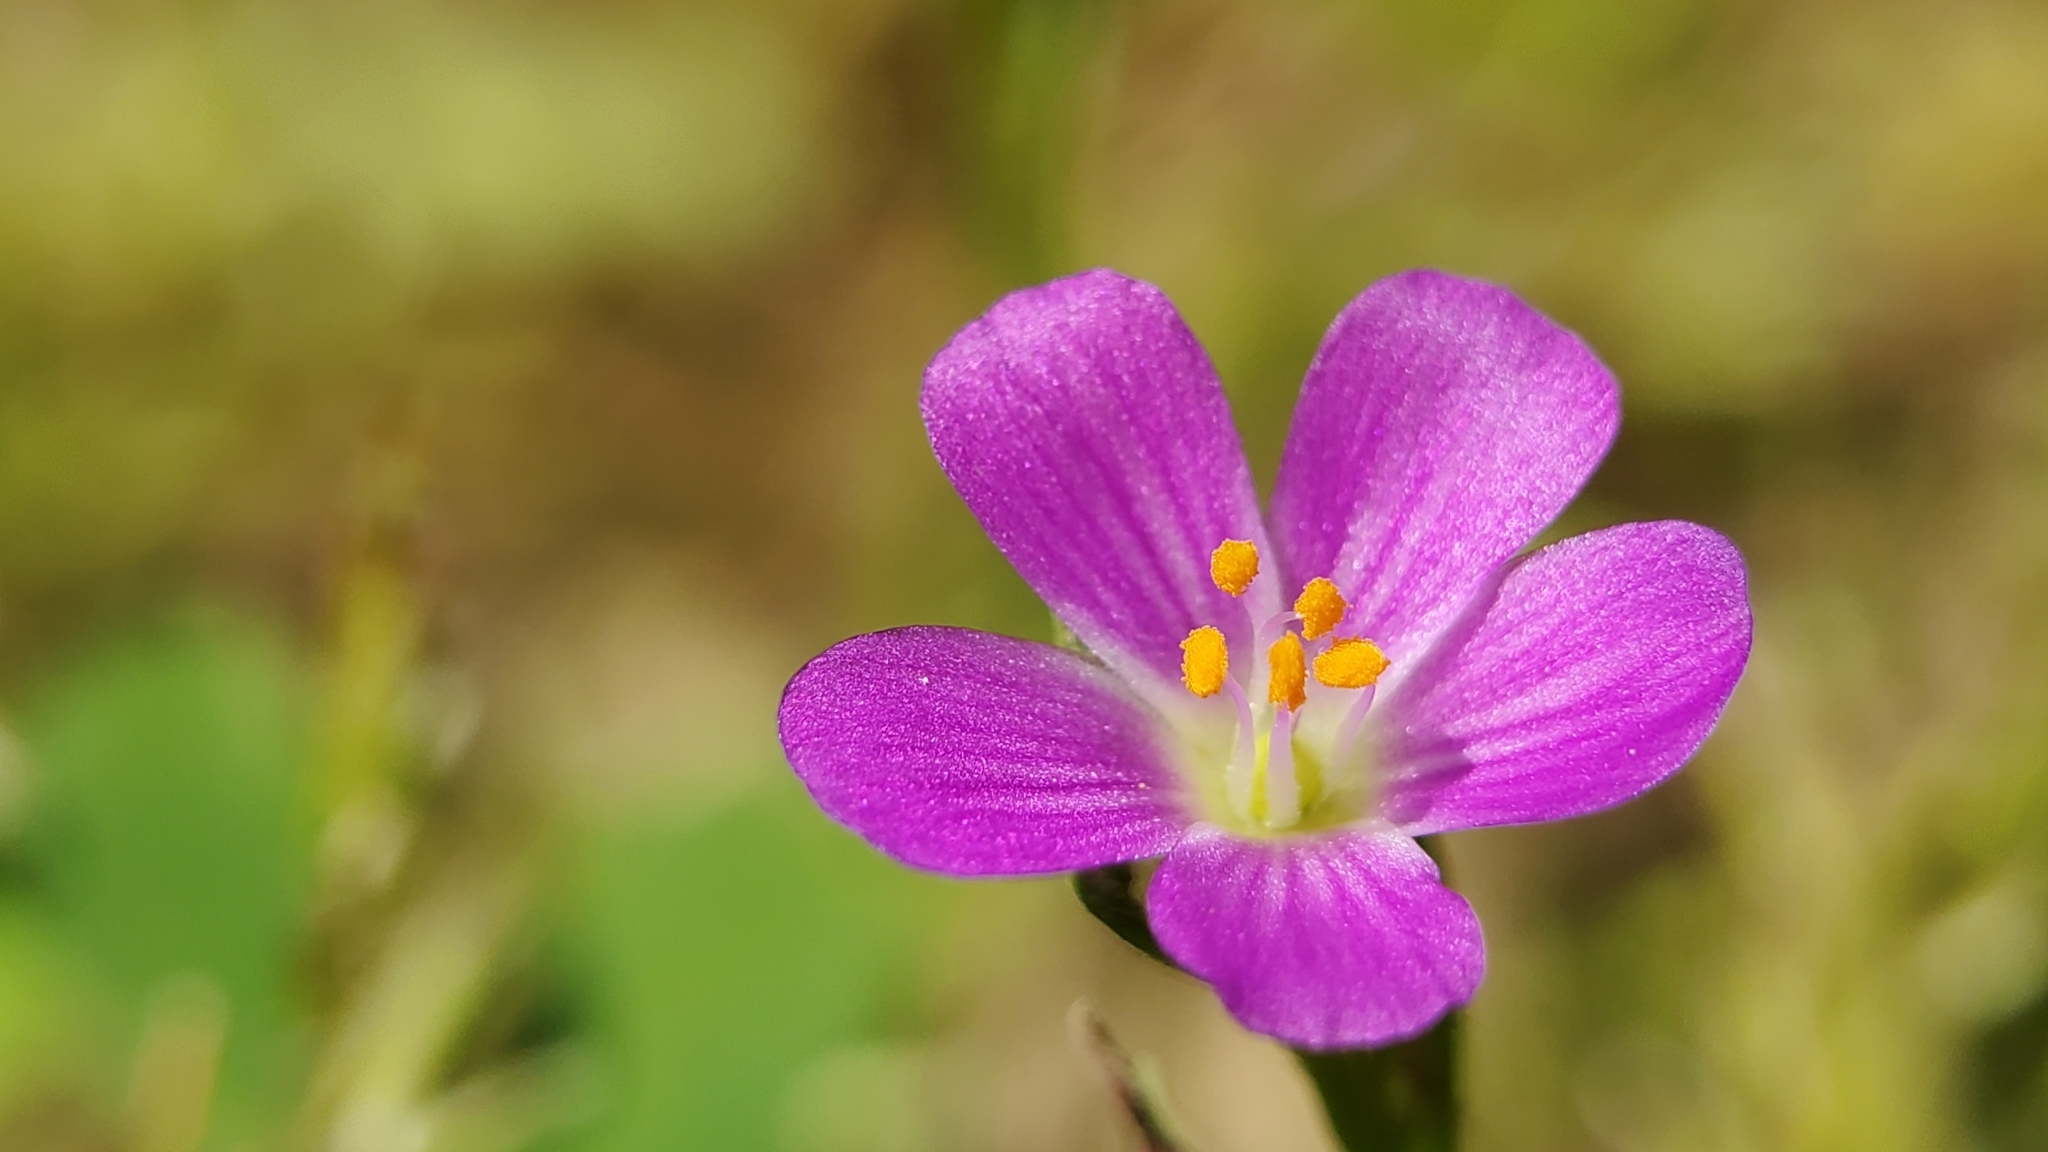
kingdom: Plantae
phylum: Tracheophyta
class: Magnoliopsida
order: Caryophyllales
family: Montiaceae
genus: Calandrinia
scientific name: Calandrinia menziesii
